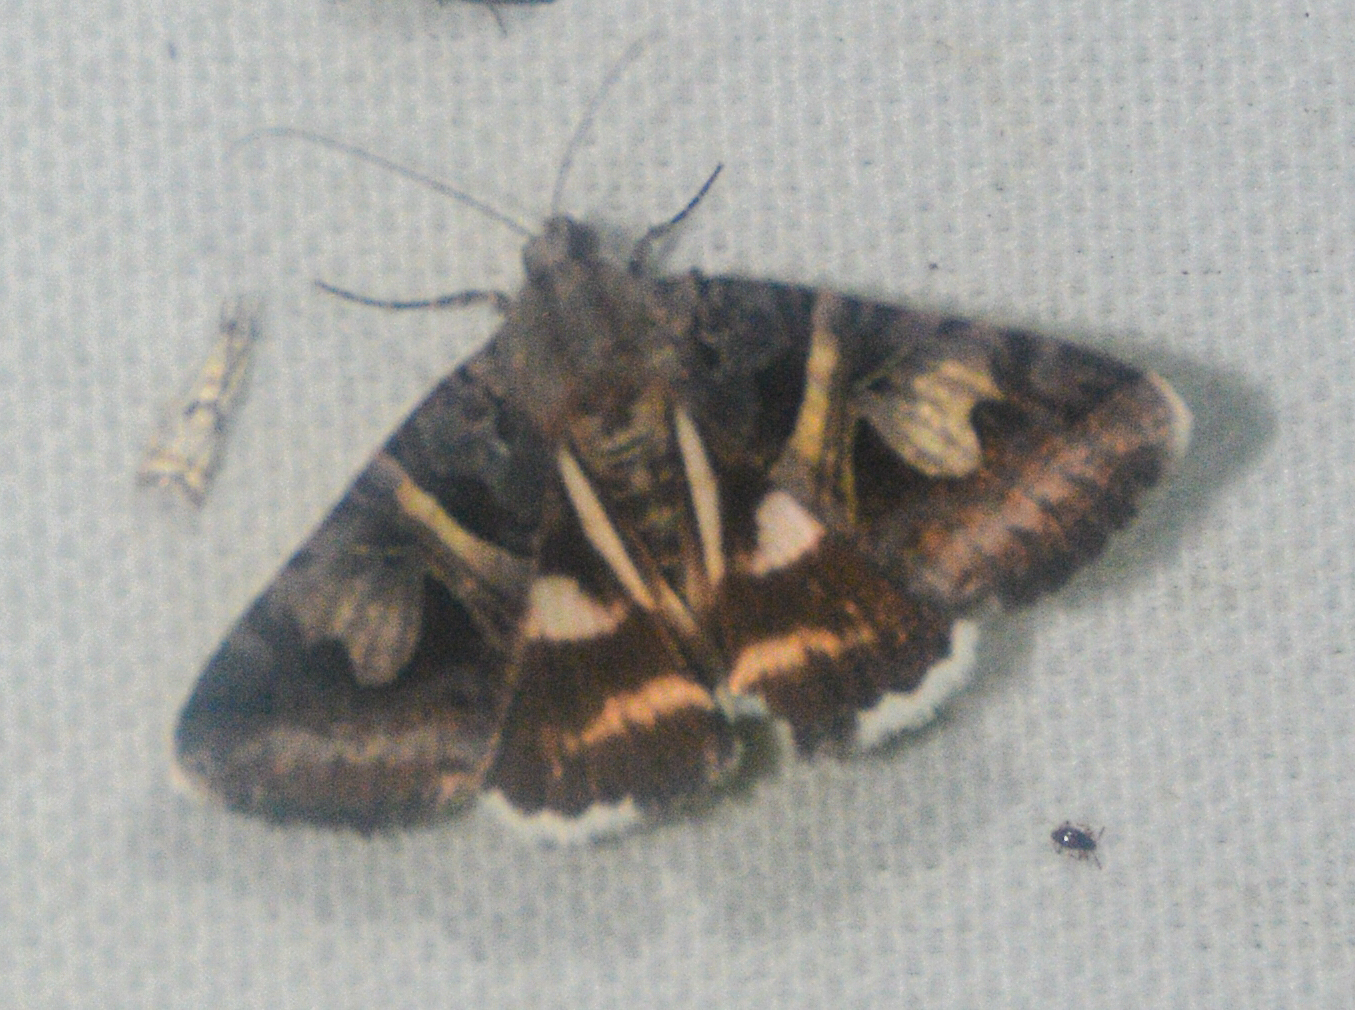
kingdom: Animalia
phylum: Arthropoda
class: Insecta
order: Lepidoptera
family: Erebidae
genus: Drasteria
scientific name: Drasteria grandirena
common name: Figure-seven moth
